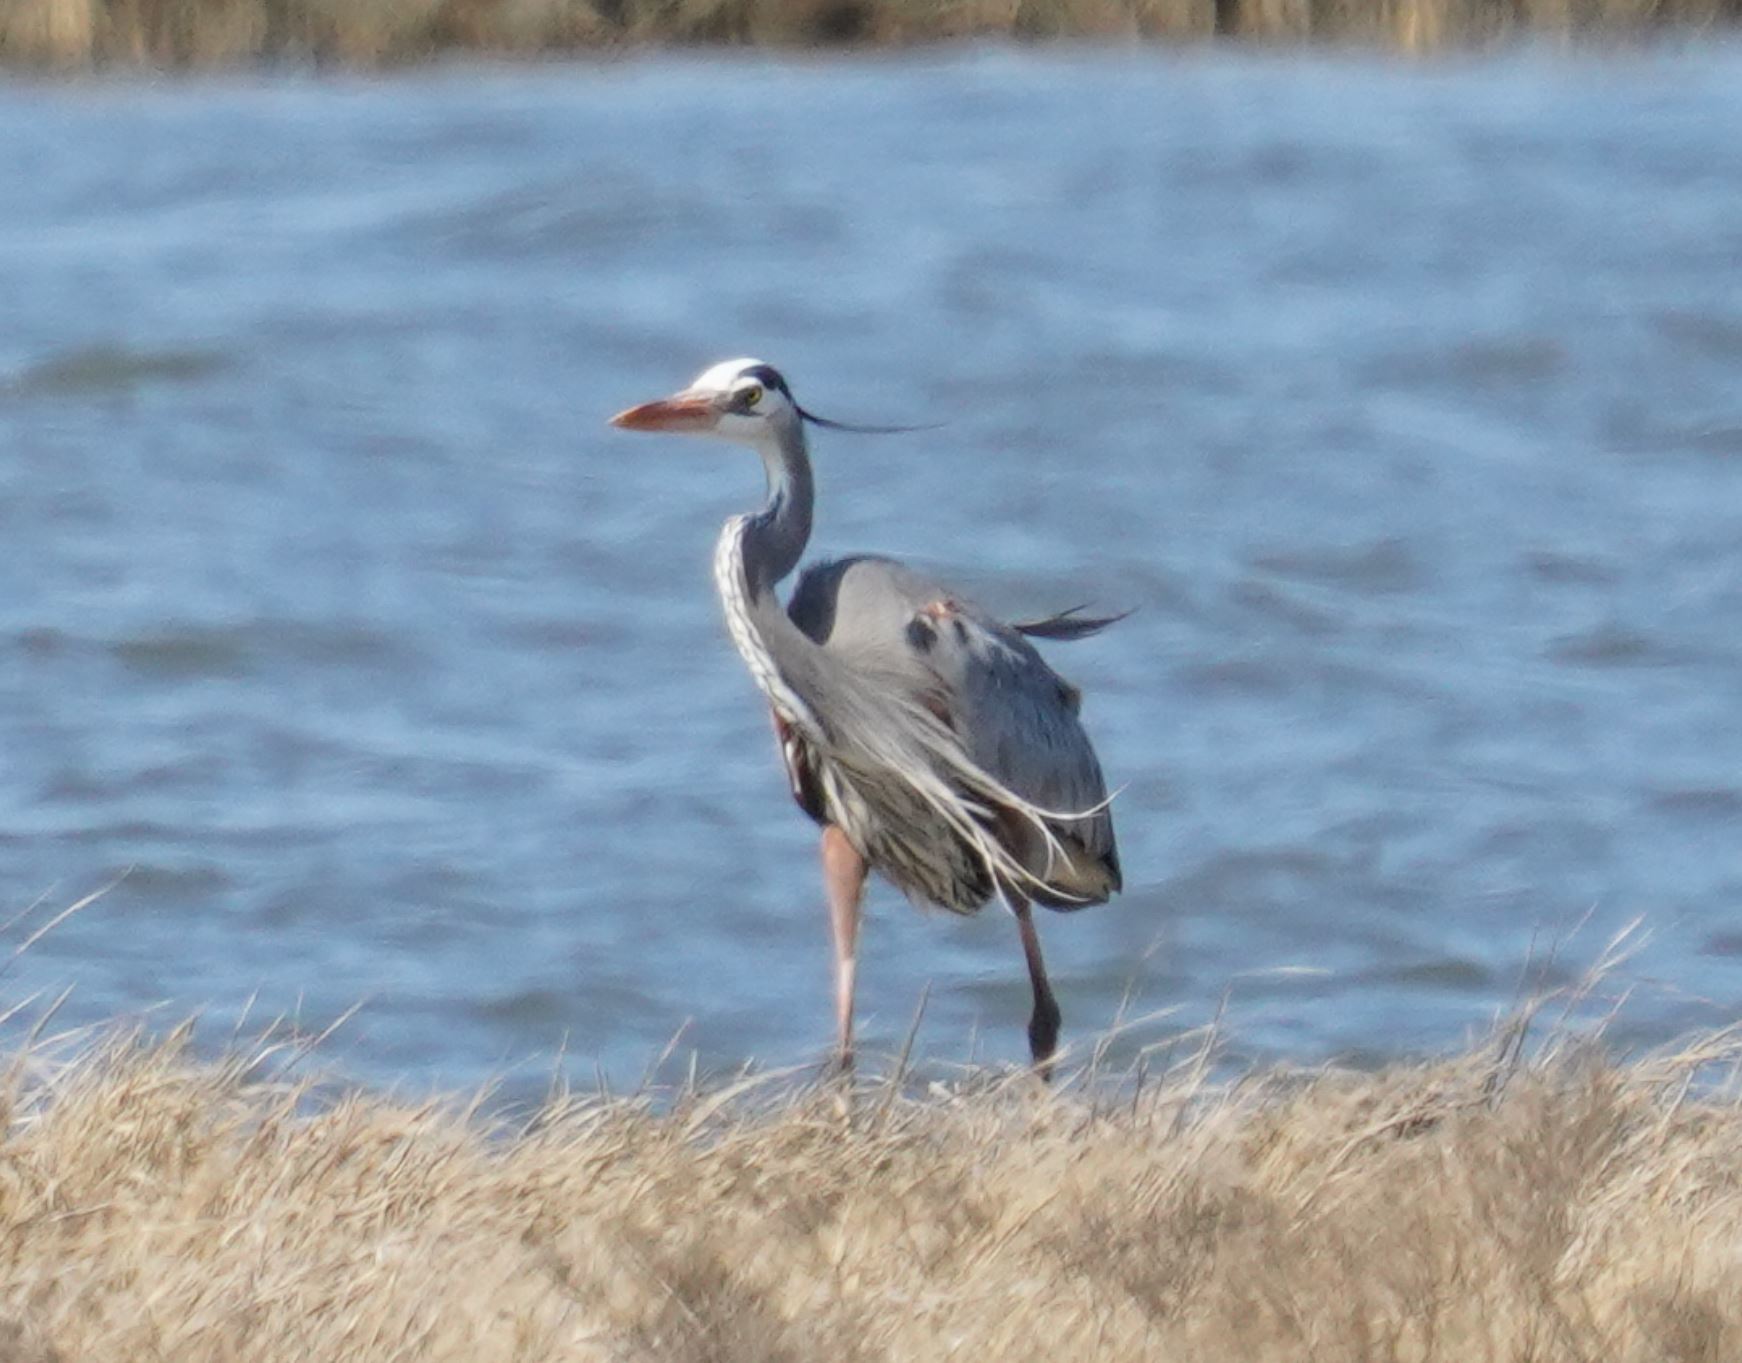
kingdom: Animalia
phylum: Chordata
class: Aves
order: Pelecaniformes
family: Ardeidae
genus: Ardea
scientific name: Ardea herodias
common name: Great blue heron
